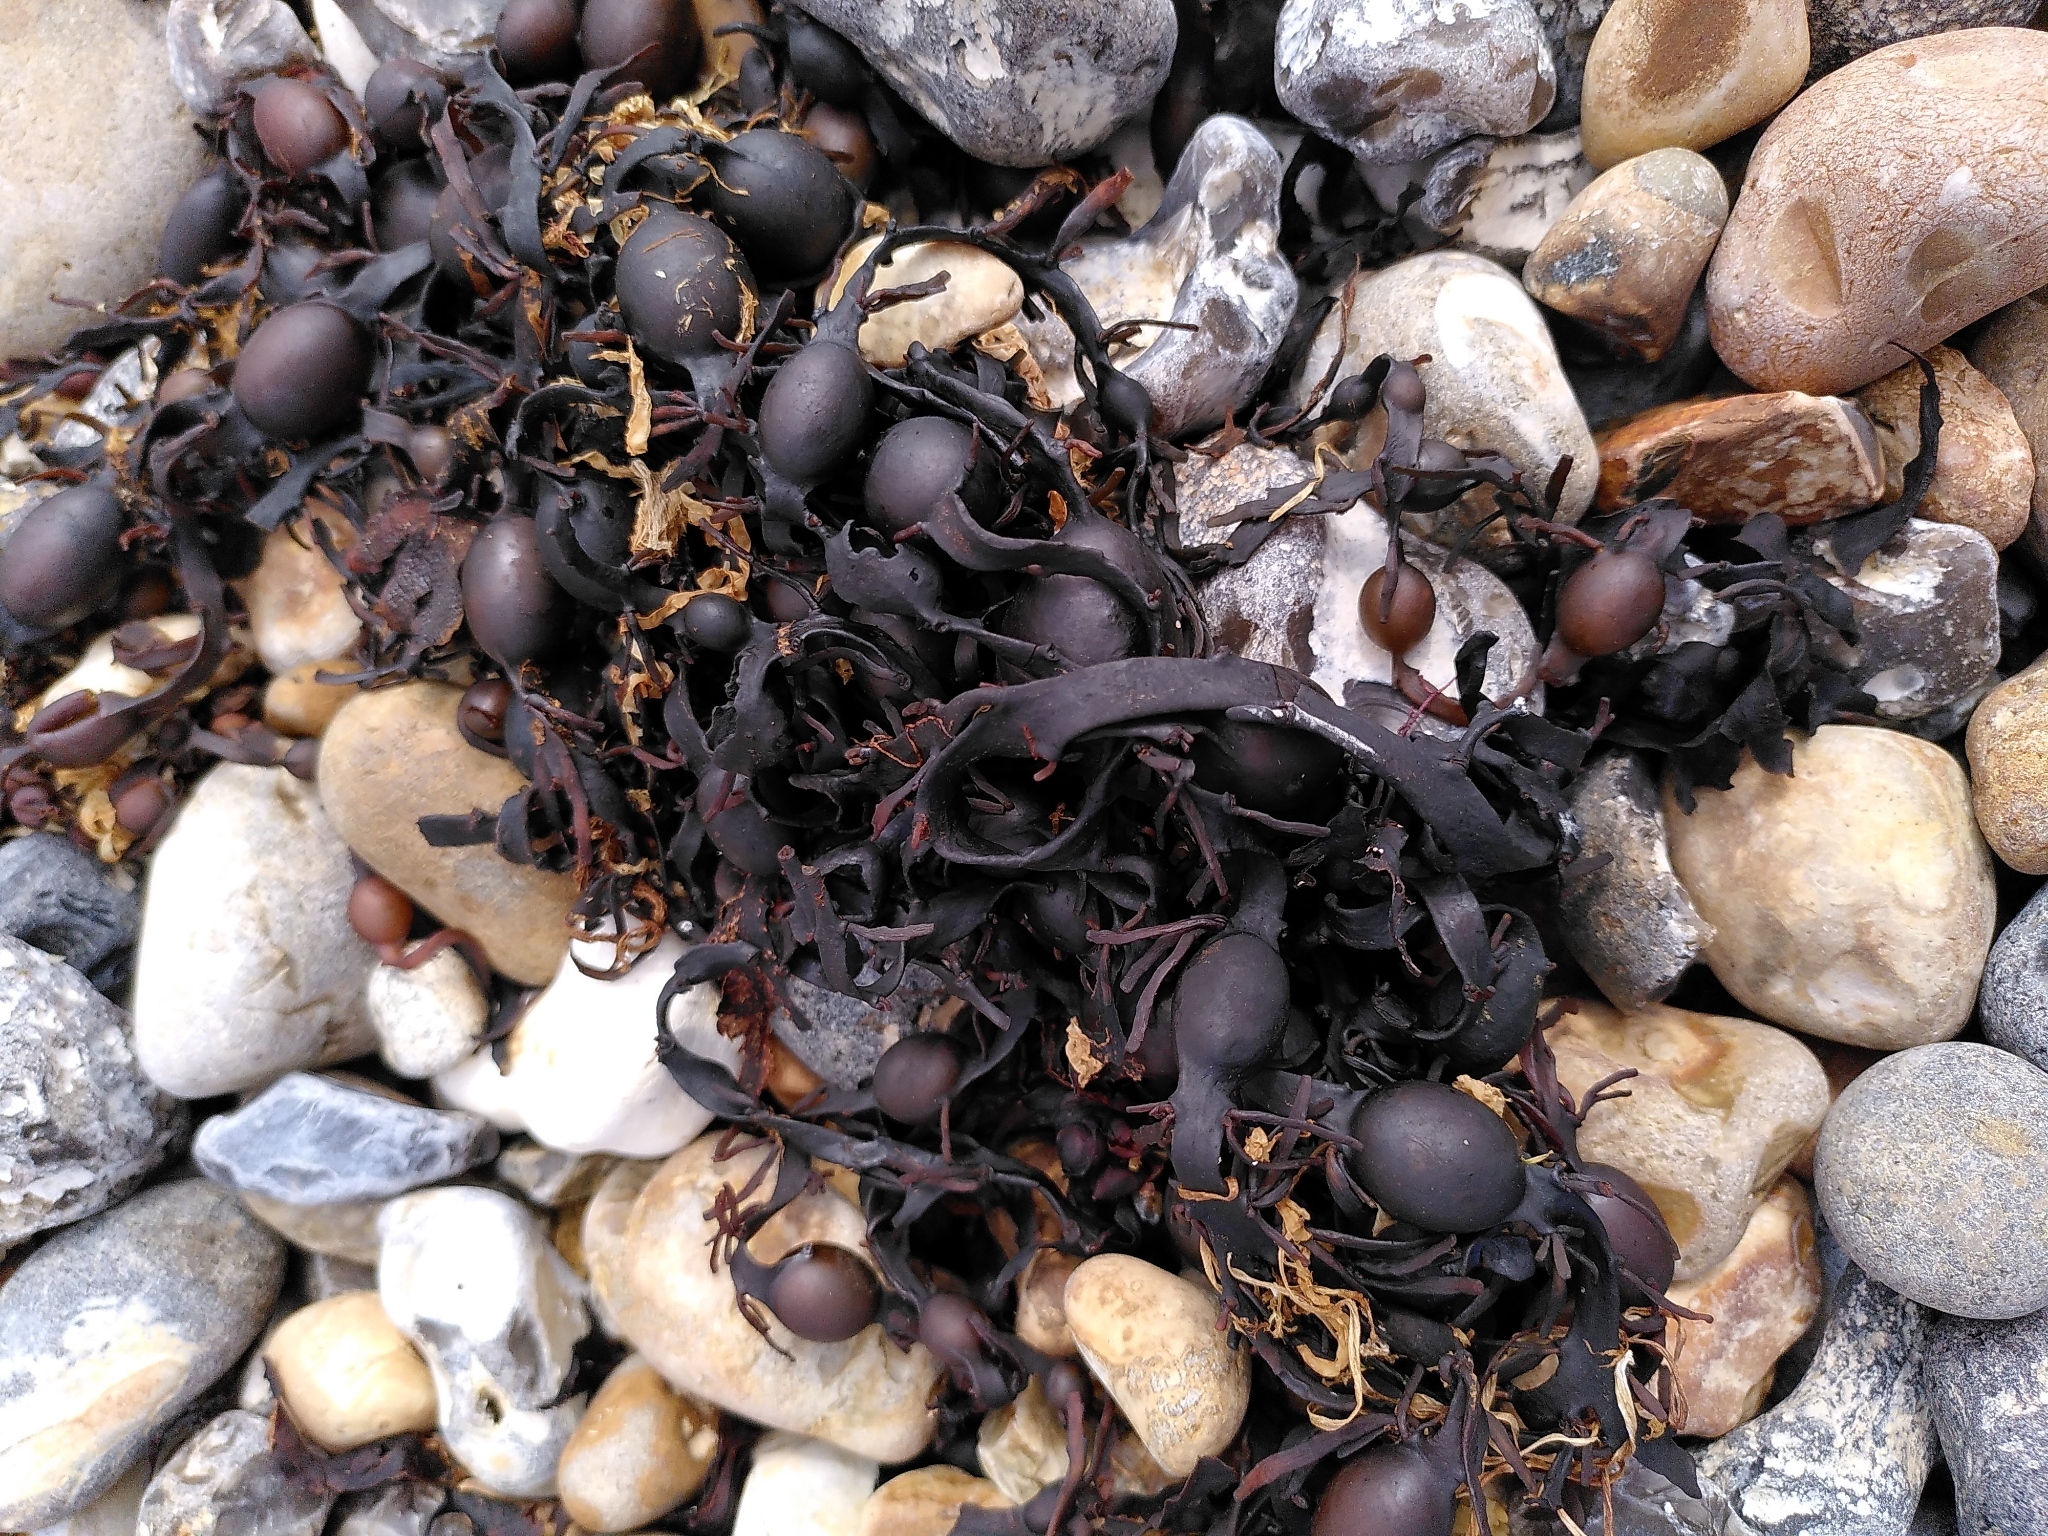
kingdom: Chromista
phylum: Ochrophyta
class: Phaeophyceae
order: Fucales
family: Fucaceae
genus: Ascophyllum
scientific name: Ascophyllum nodosum
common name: Knotted wrack
